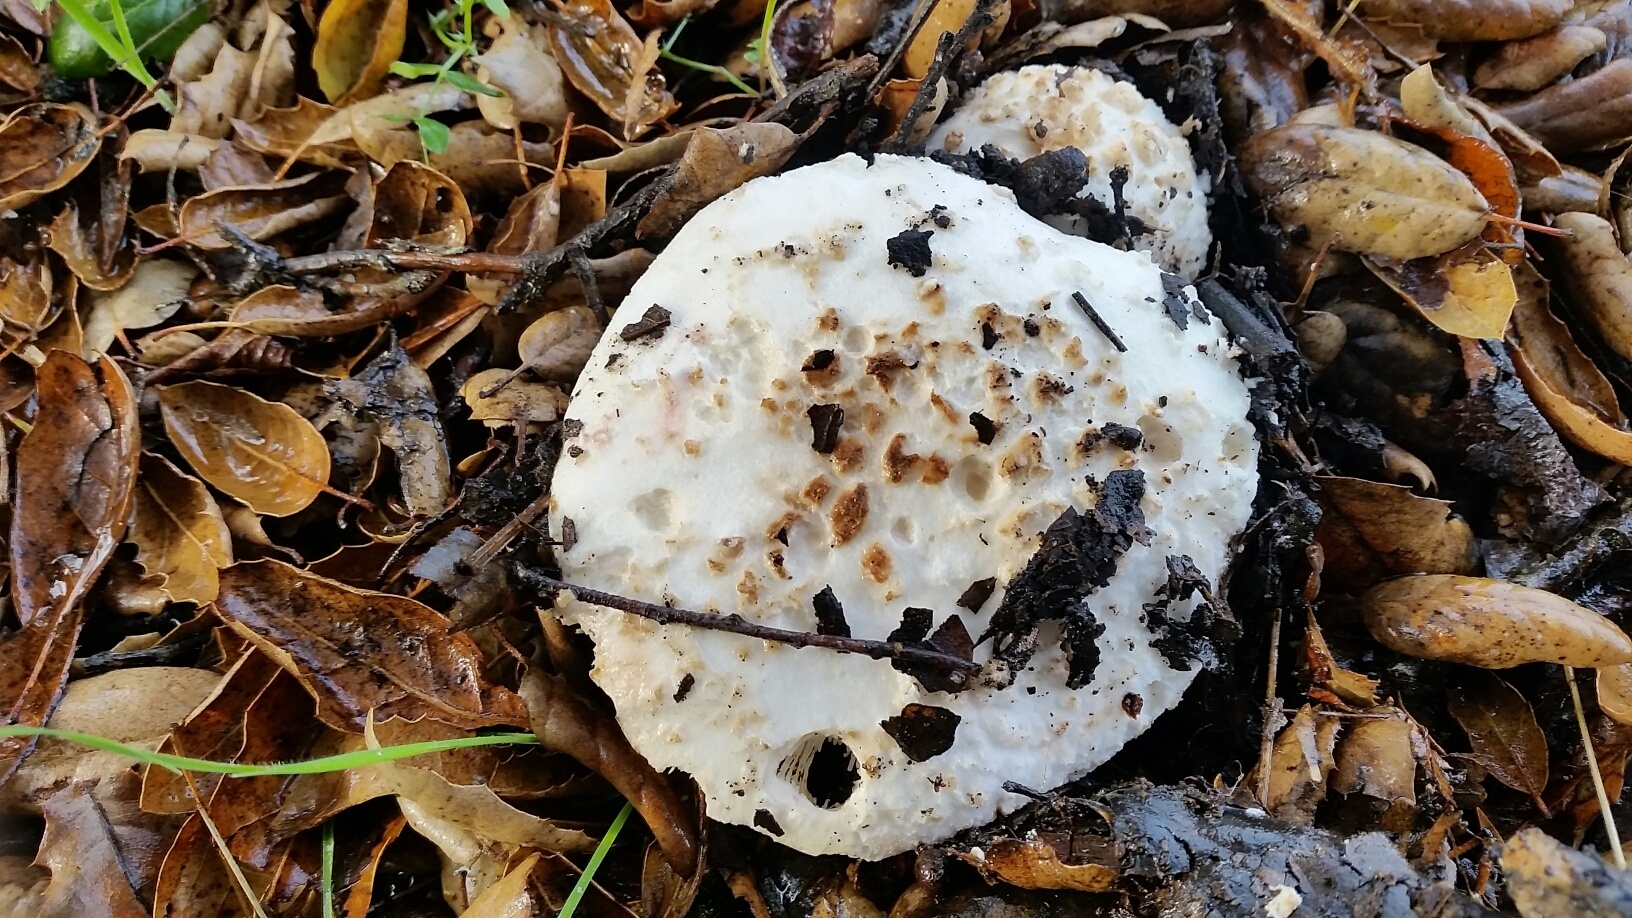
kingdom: Fungi
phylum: Basidiomycota
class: Agaricomycetes
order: Agaricales
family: Amanitaceae
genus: Amanita
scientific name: Amanita ocreata
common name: Western destroying angel
